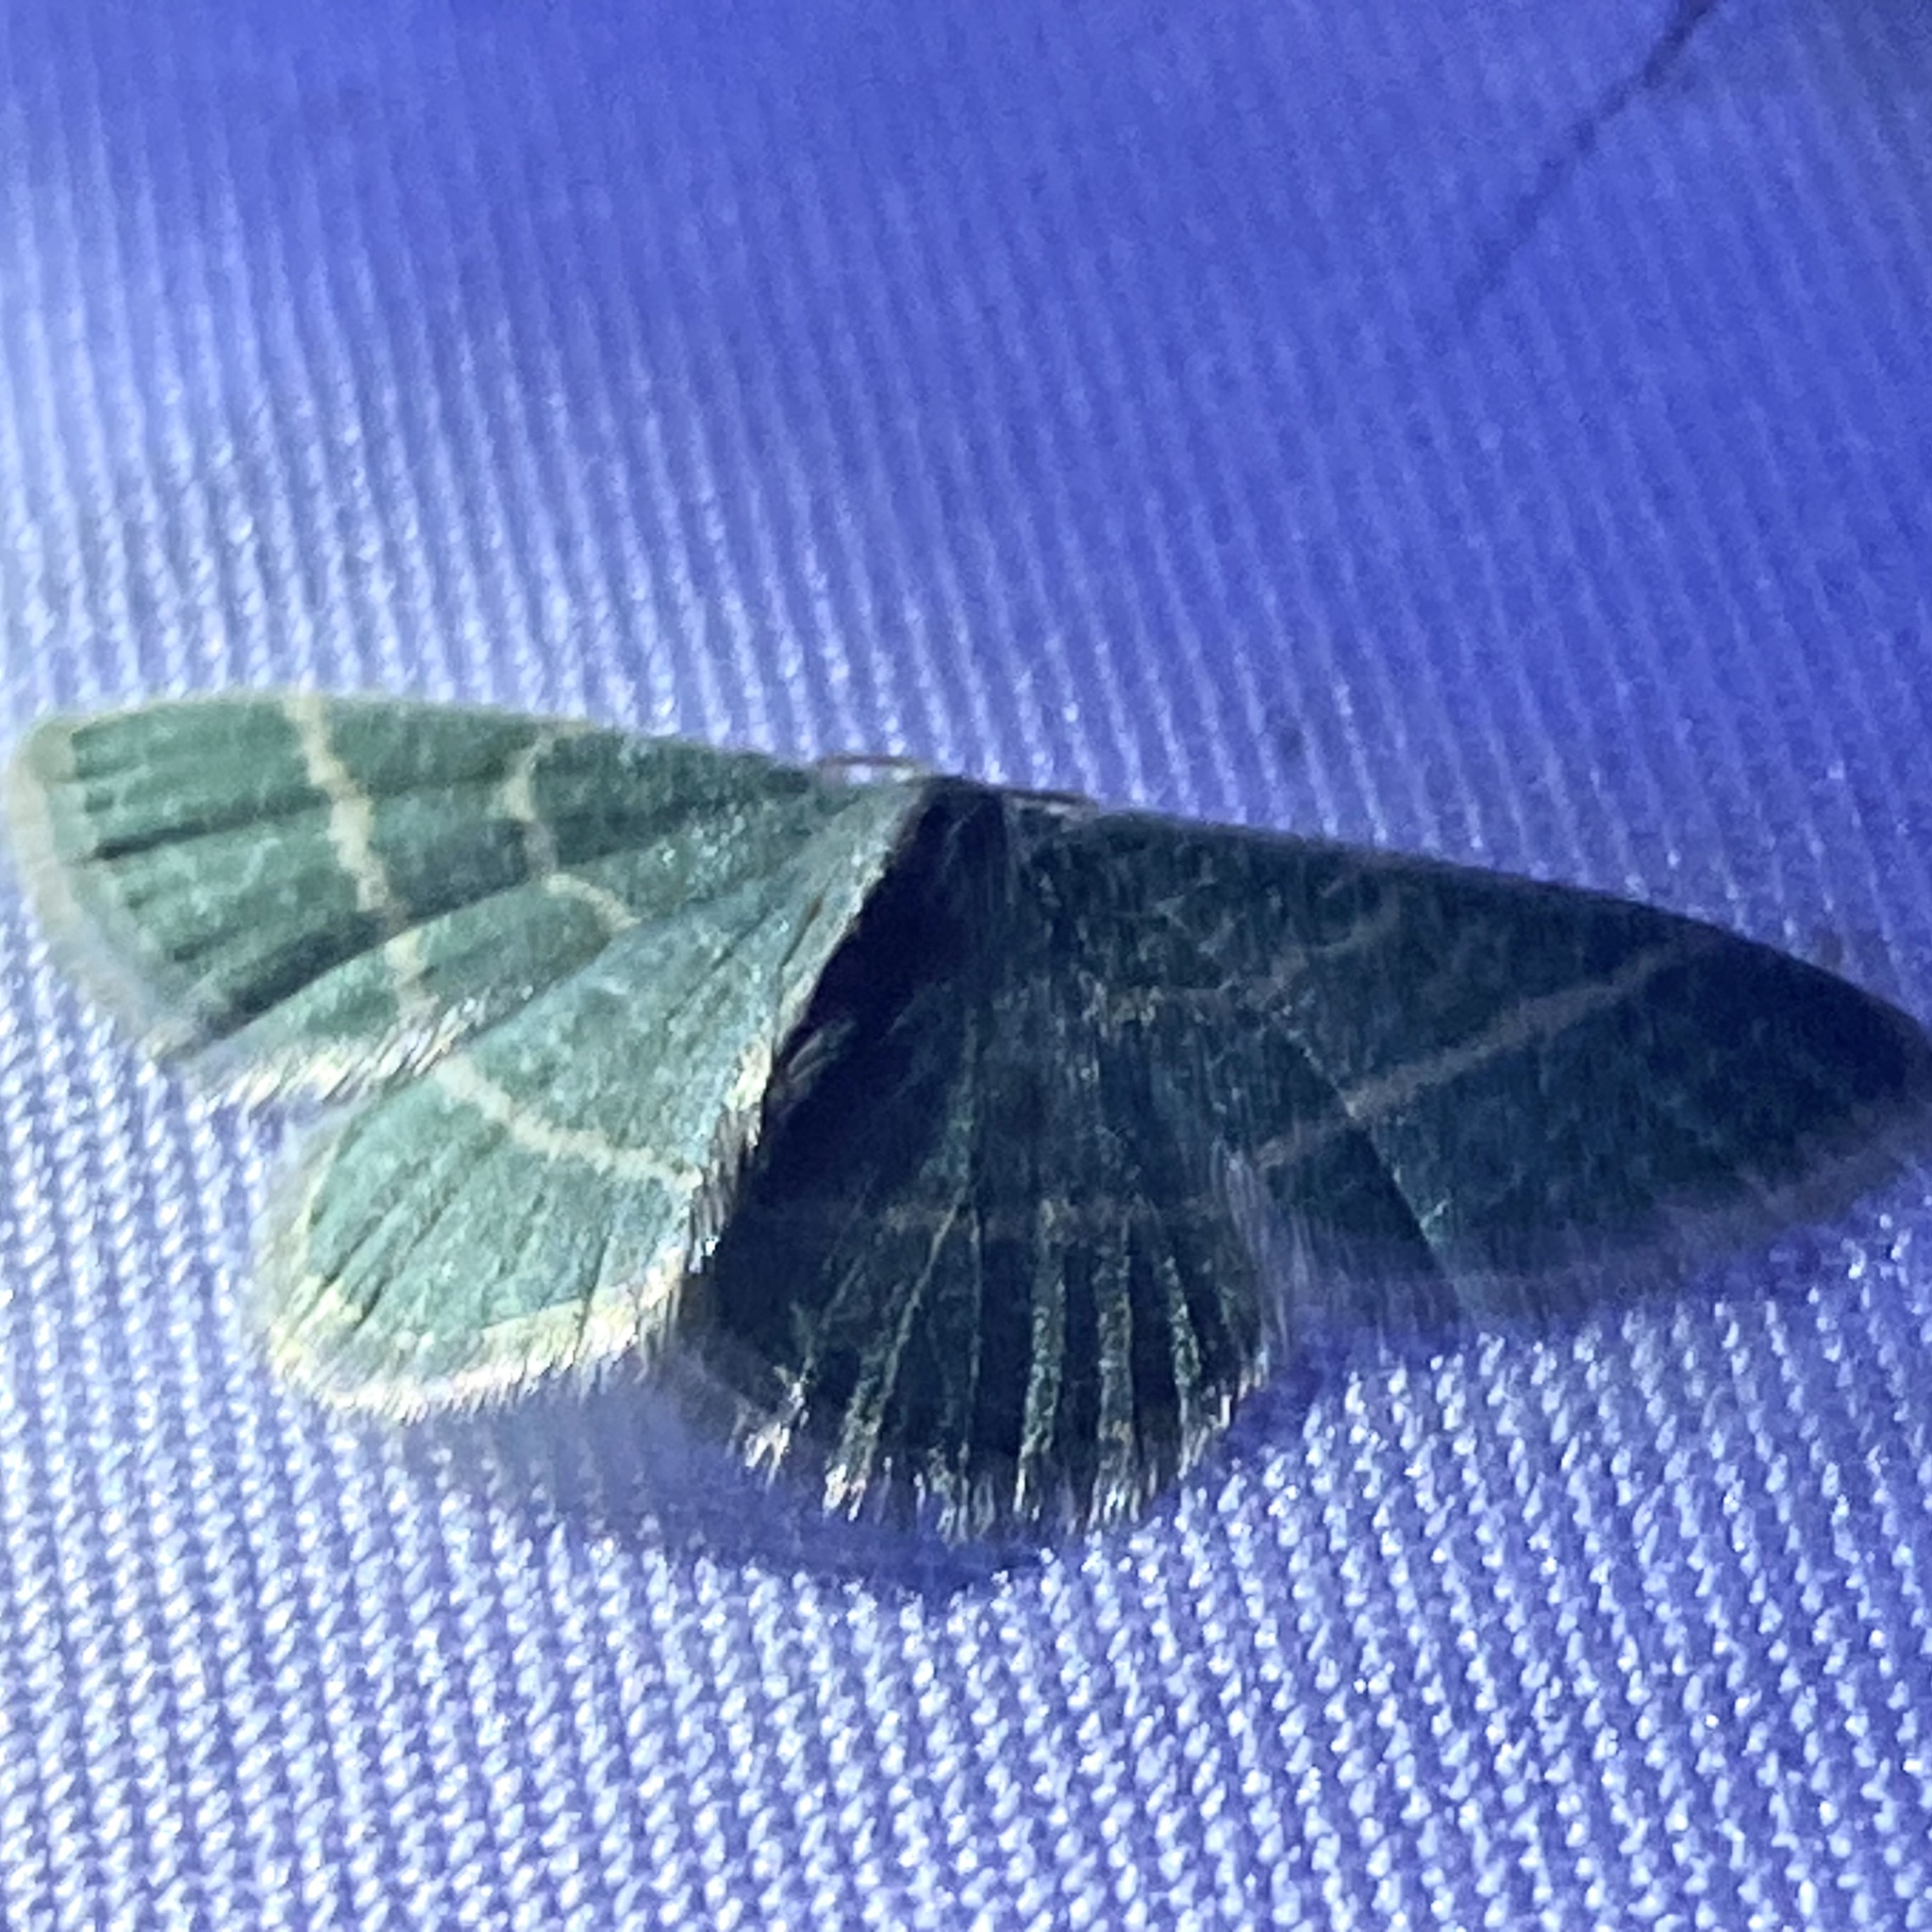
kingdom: Animalia
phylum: Arthropoda
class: Insecta
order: Lepidoptera
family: Geometridae
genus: Chlorochlamys
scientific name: Chlorochlamys chloroleucaria
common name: Blackberry looper
